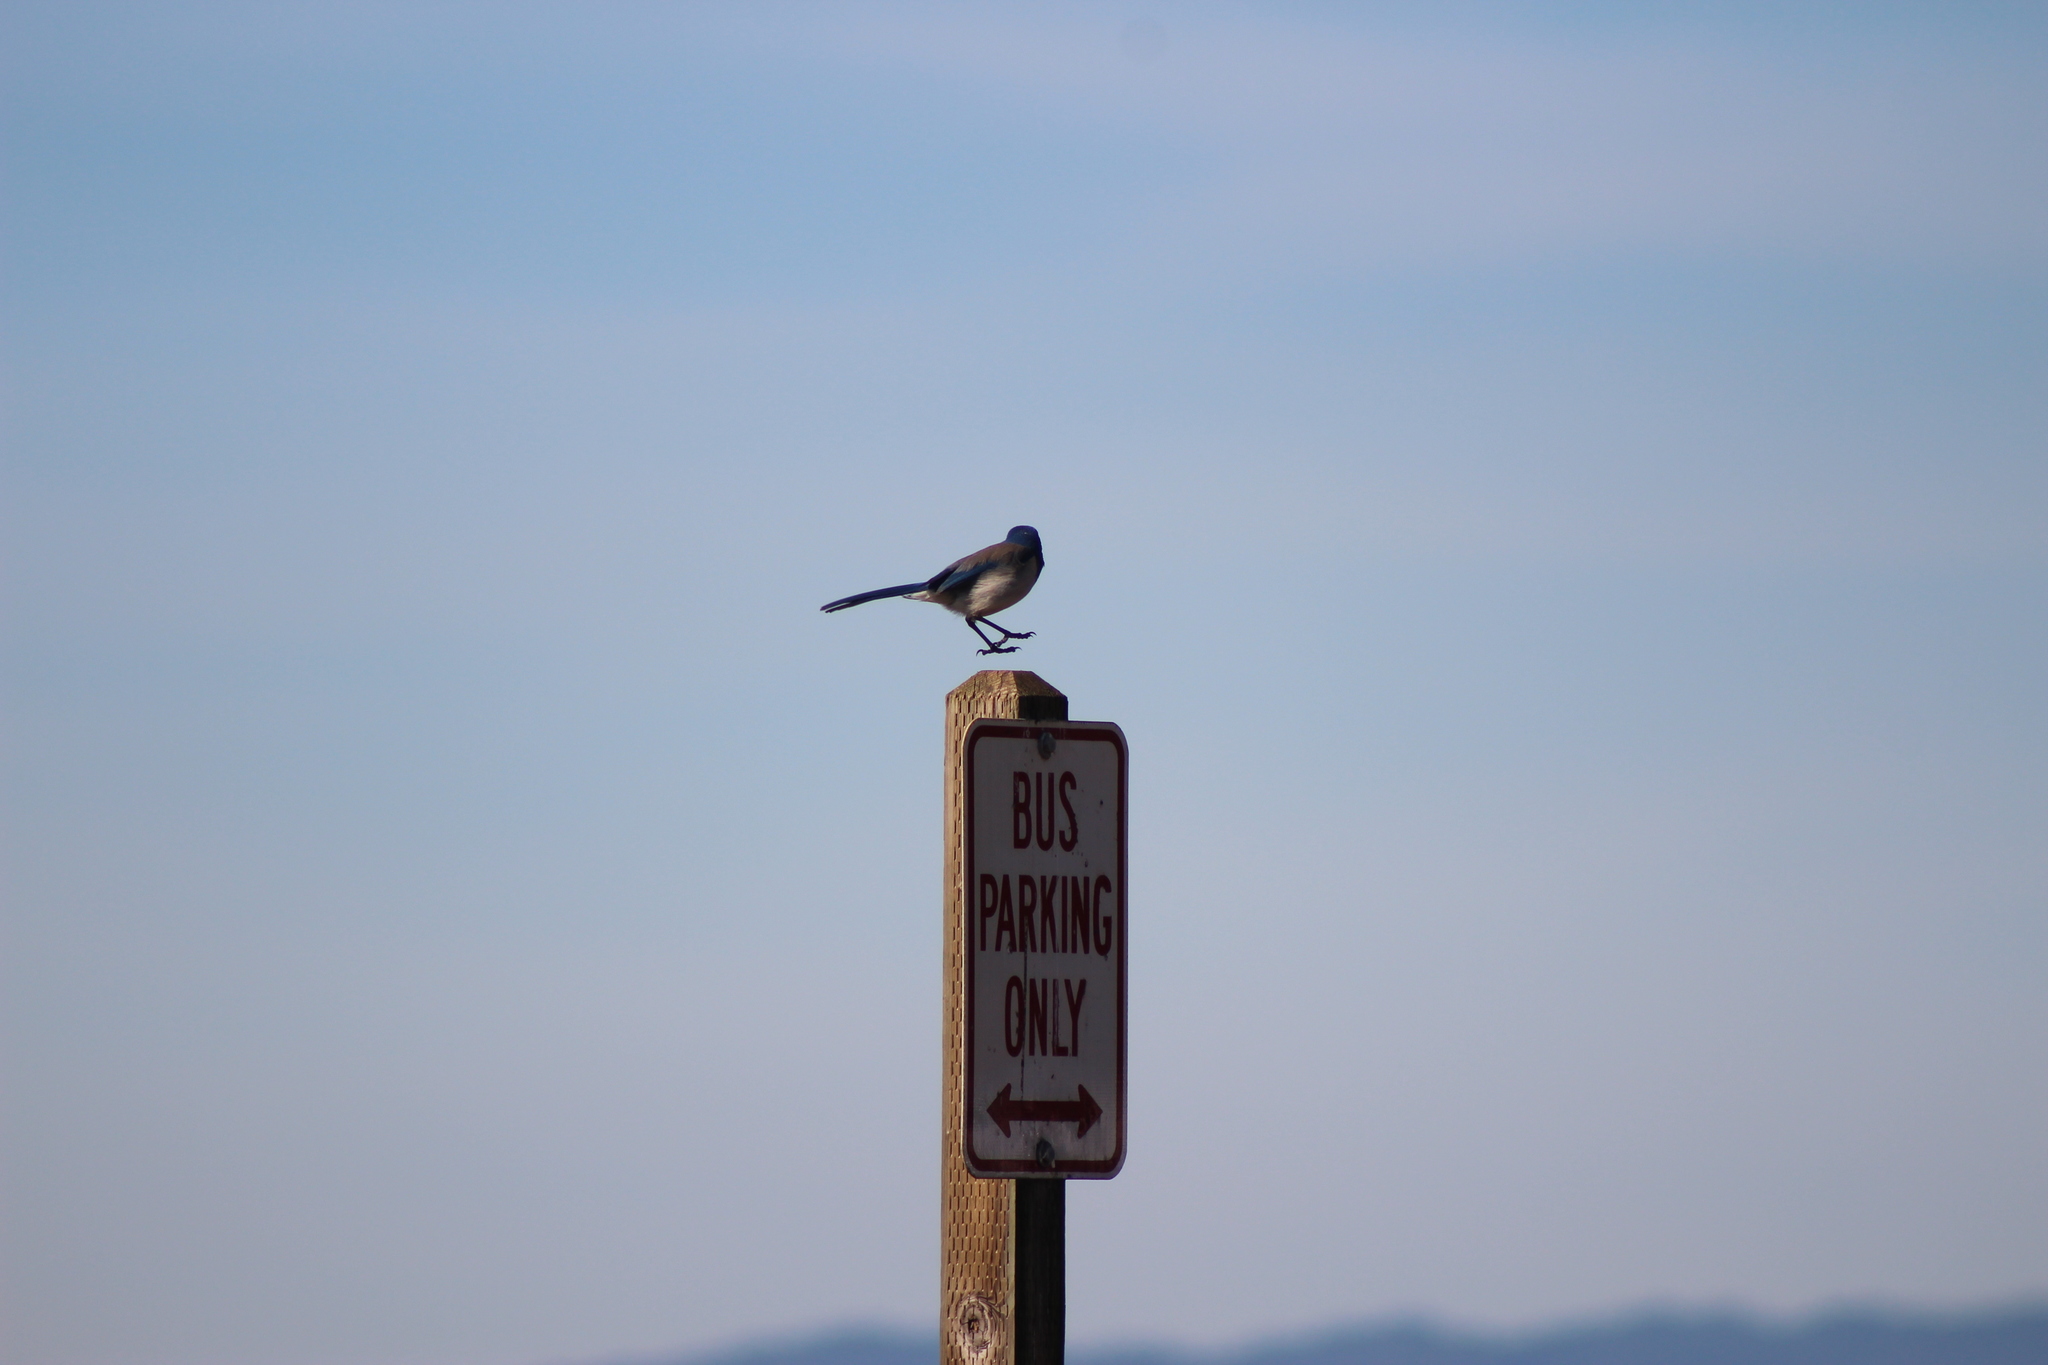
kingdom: Animalia
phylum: Chordata
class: Aves
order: Passeriformes
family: Corvidae
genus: Aphelocoma
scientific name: Aphelocoma californica
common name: California scrub-jay
